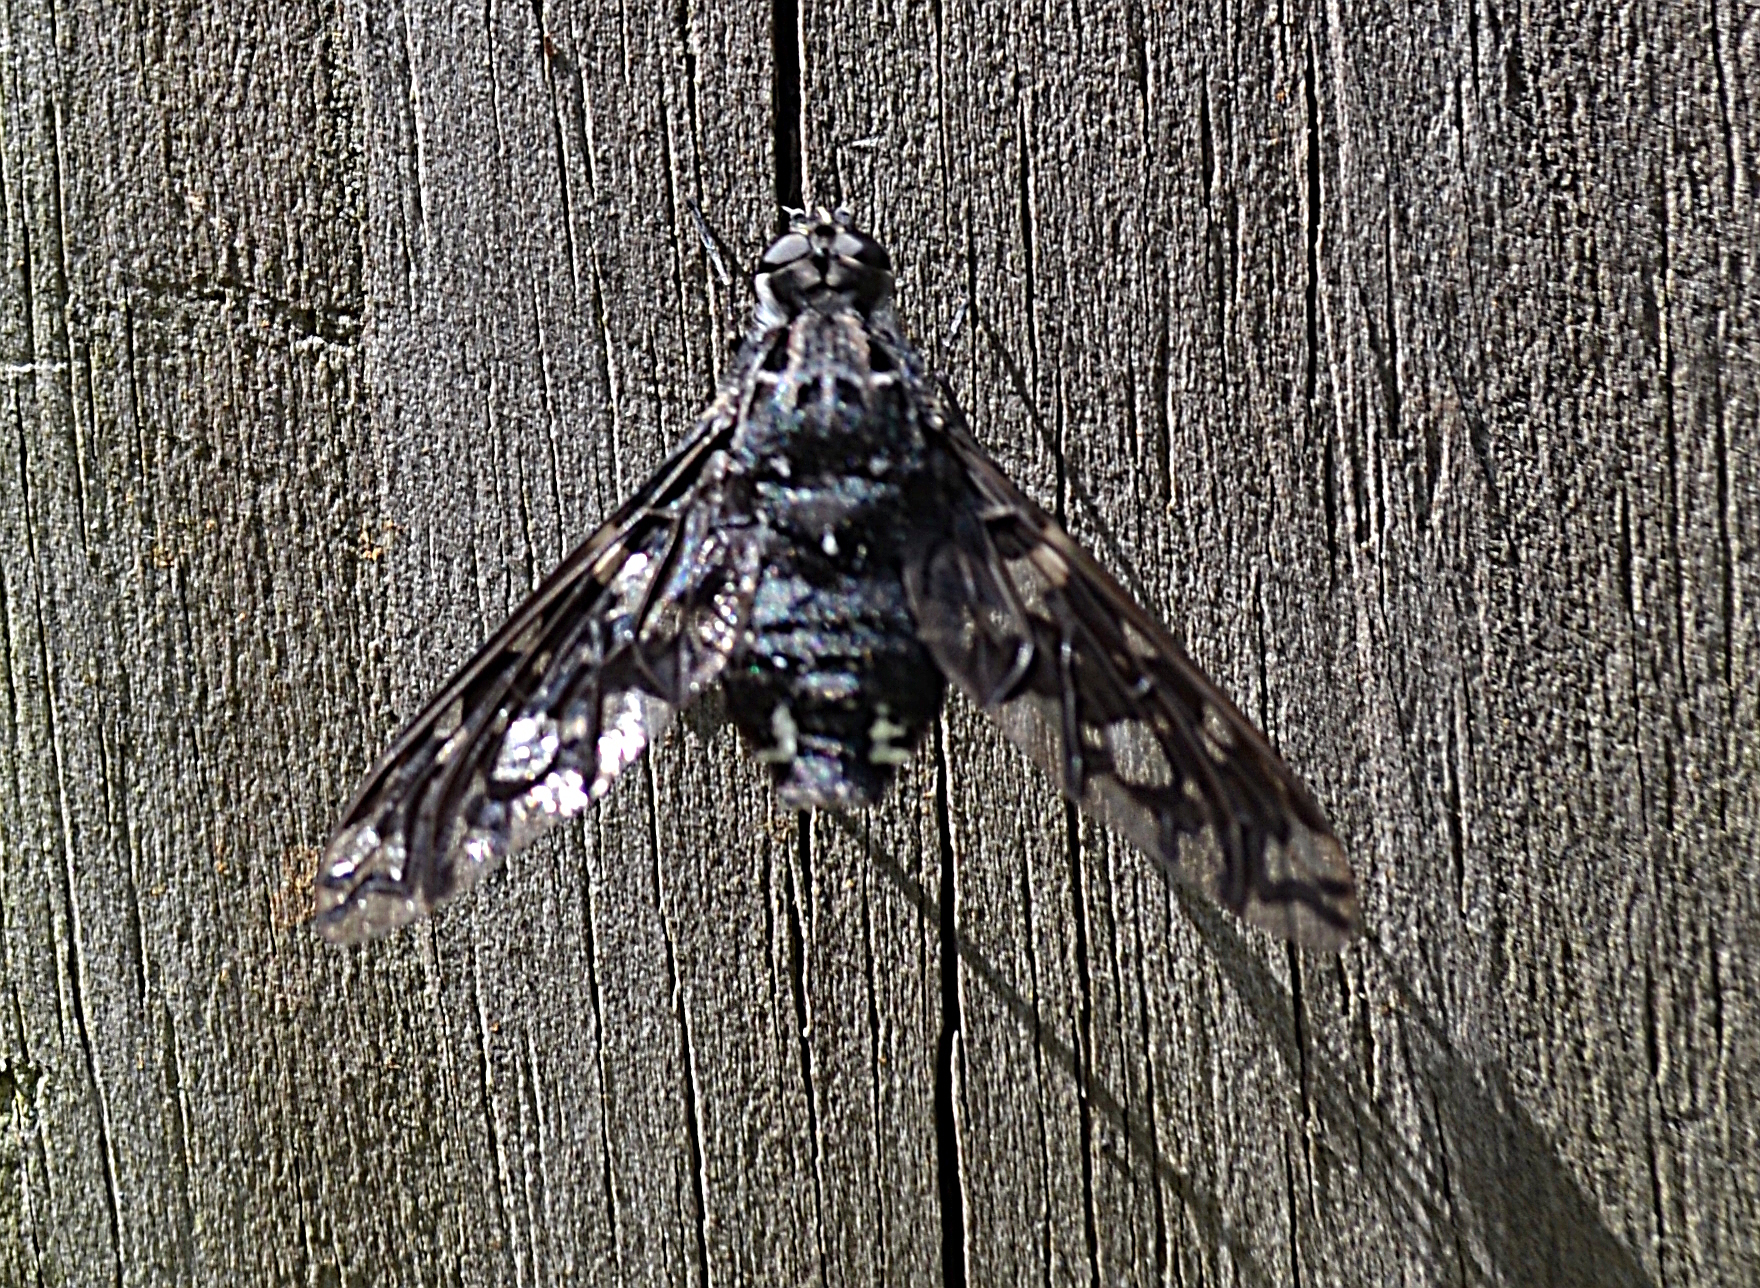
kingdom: Animalia
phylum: Arthropoda
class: Insecta
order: Diptera
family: Bombyliidae
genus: Xenox
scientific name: Xenox tigrinus
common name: Tiger bee fly
